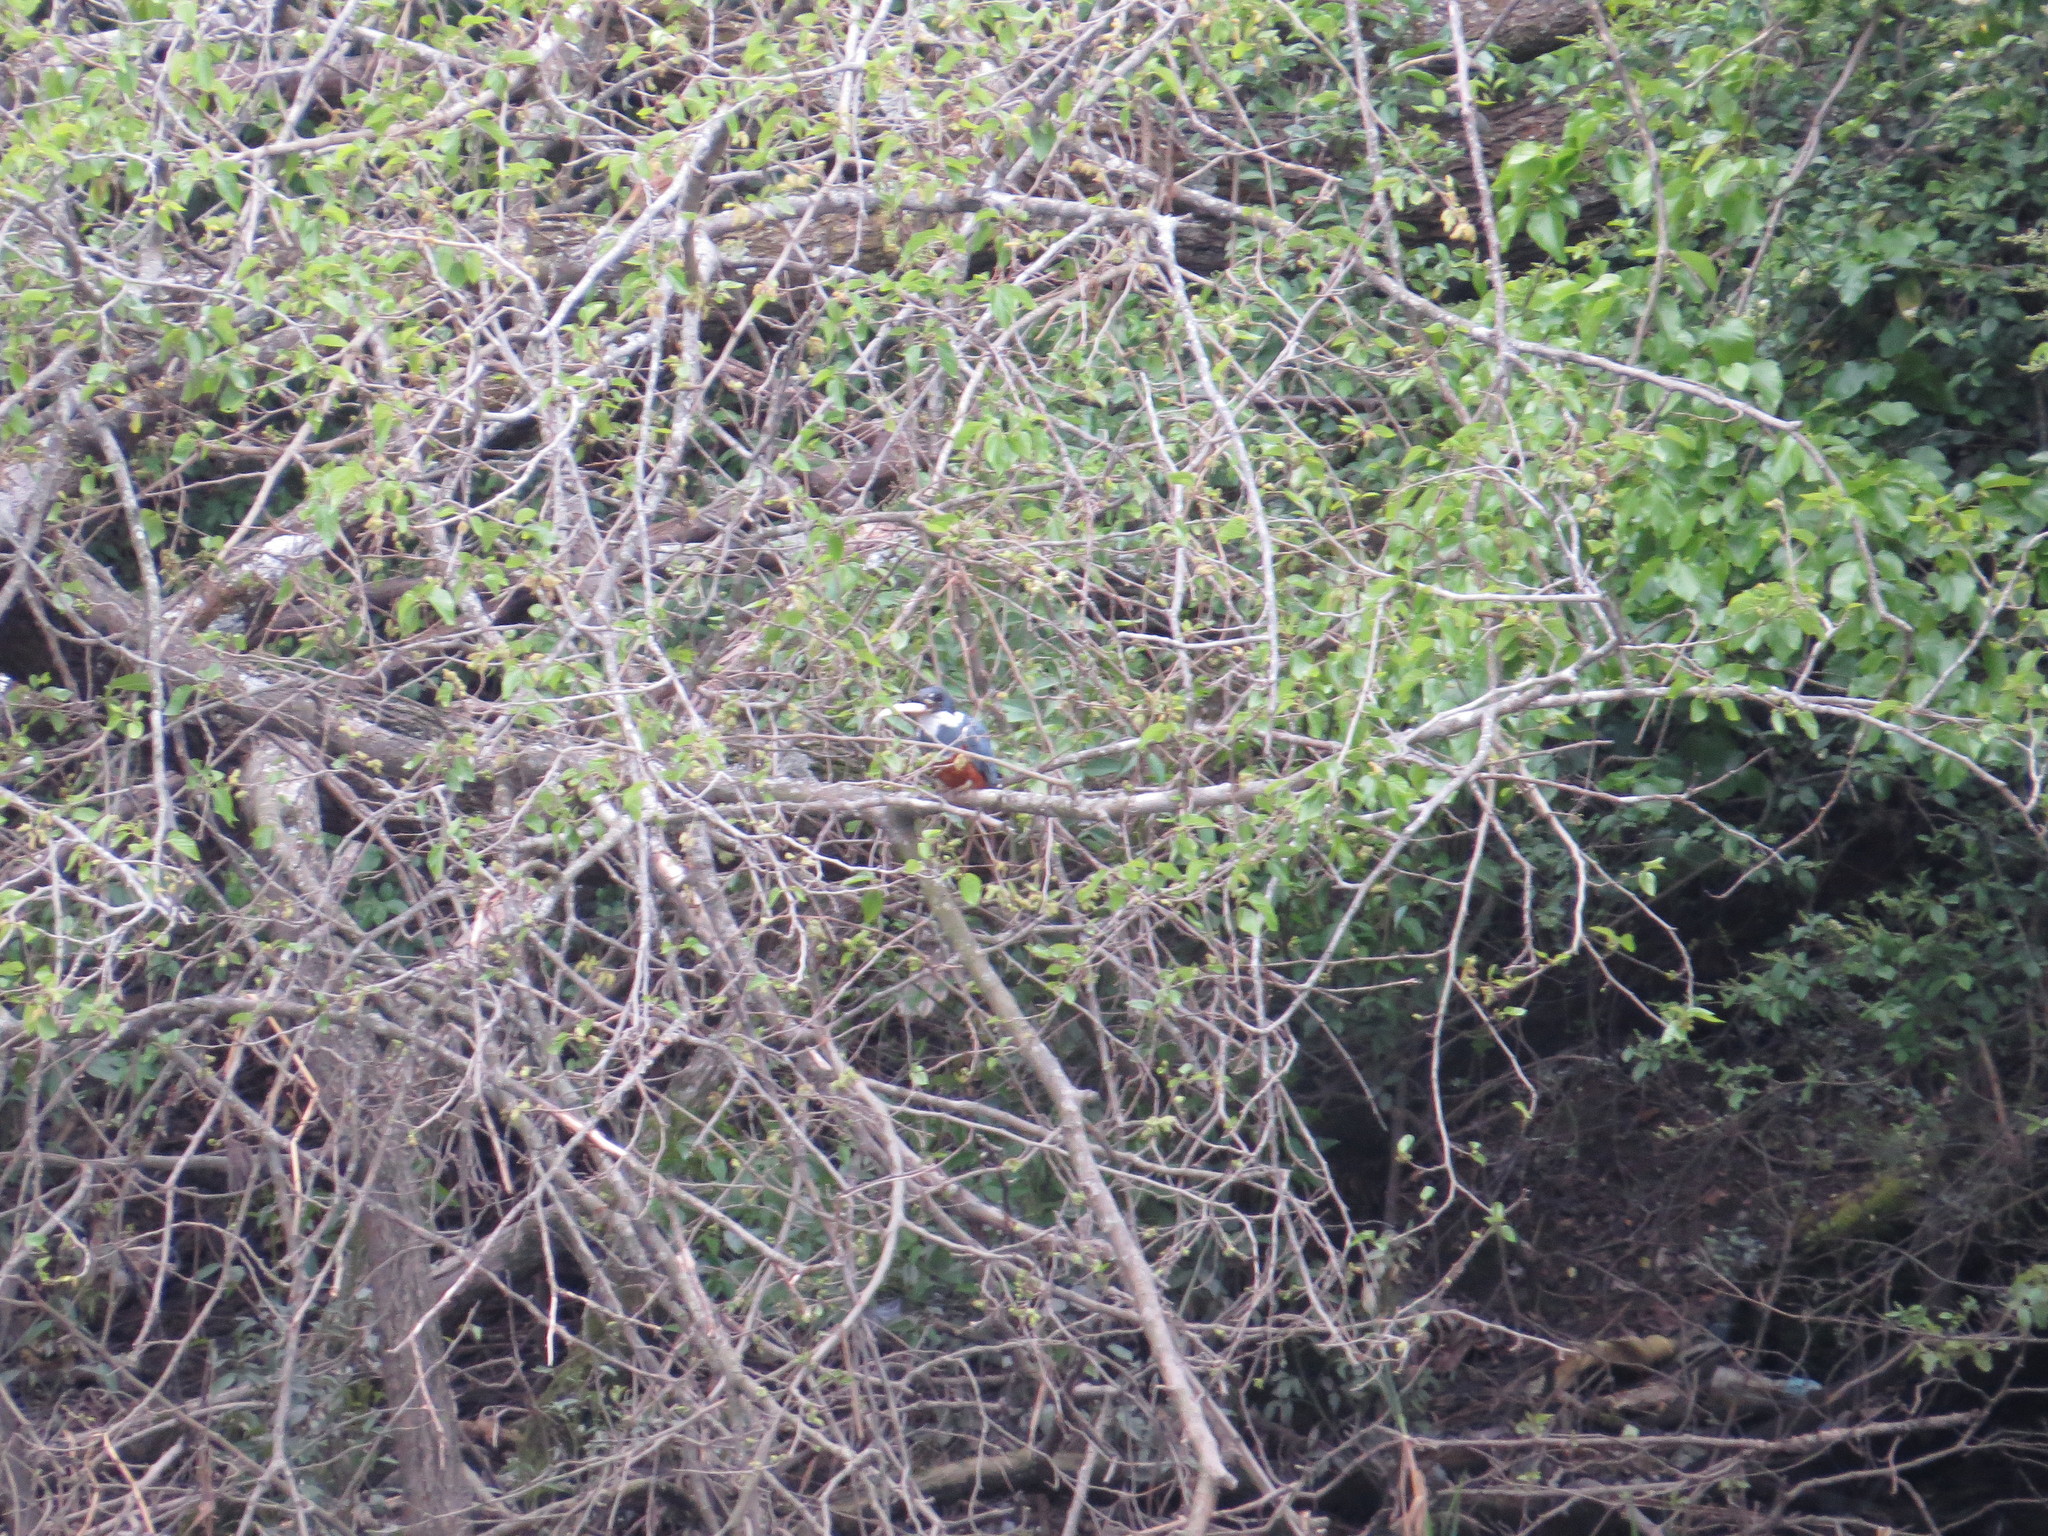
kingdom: Animalia
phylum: Chordata
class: Aves
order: Coraciiformes
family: Alcedinidae
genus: Megaceryle
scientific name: Megaceryle torquata
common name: Ringed kingfisher
